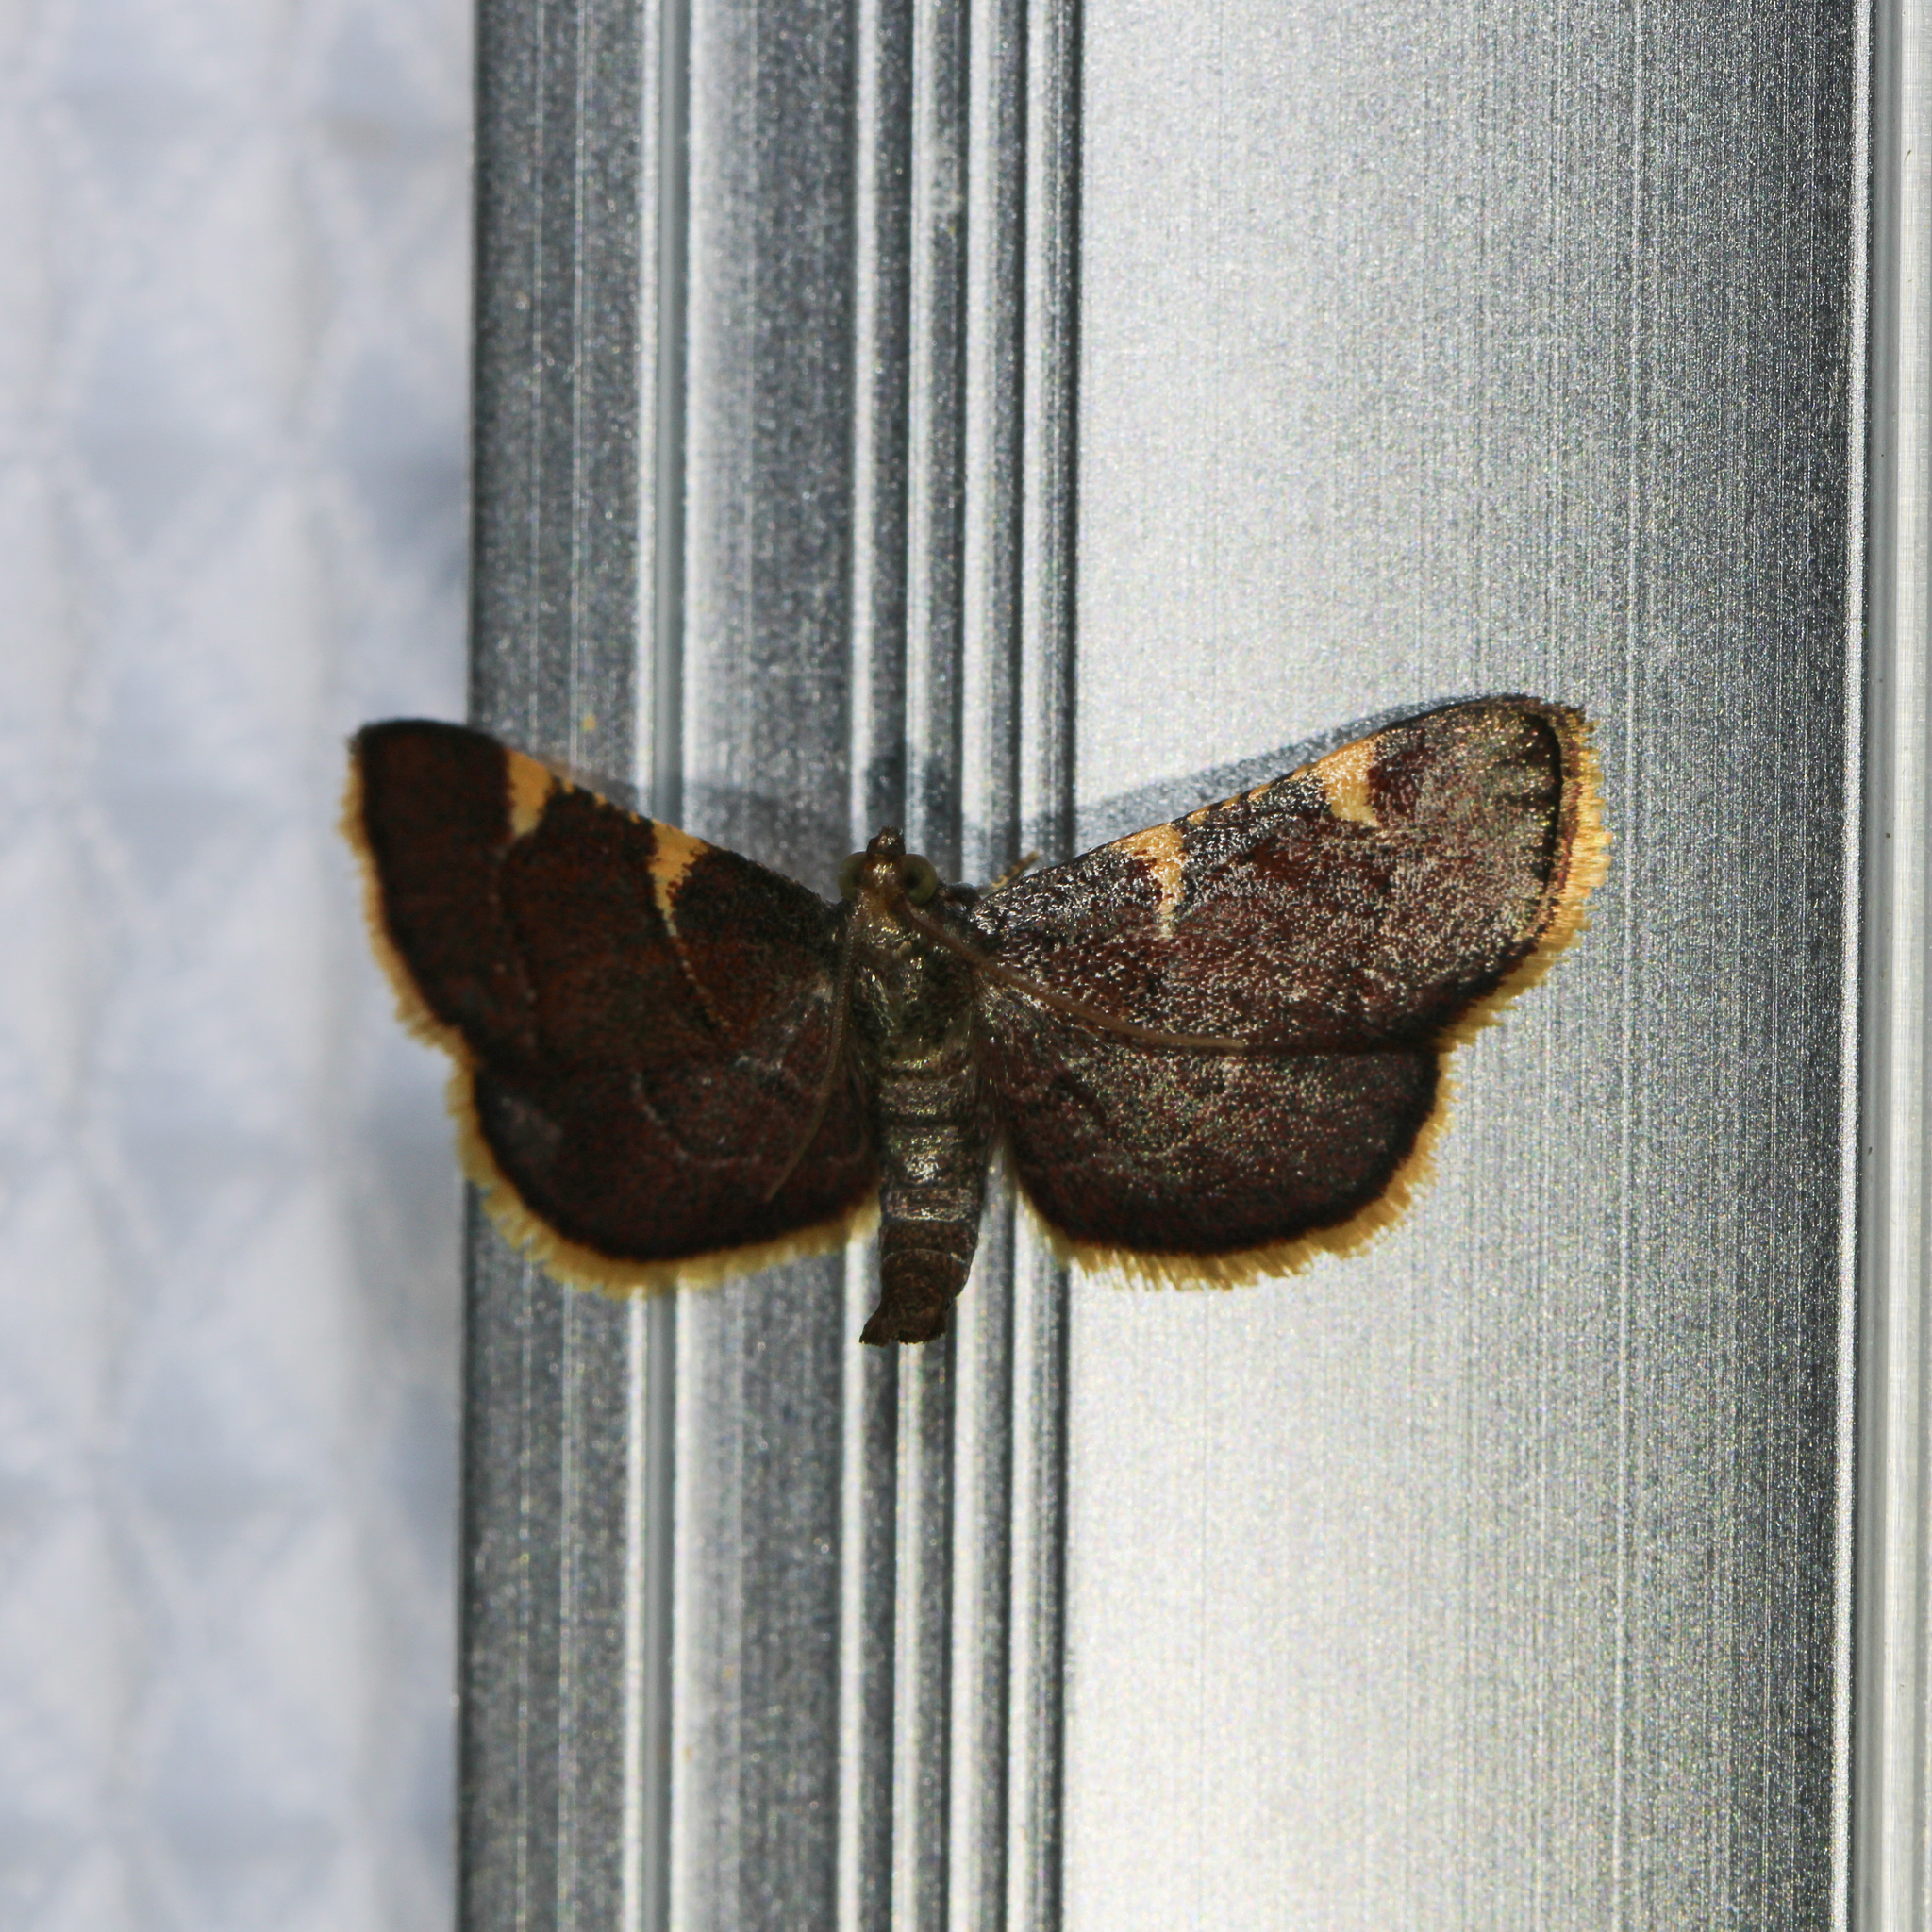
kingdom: Animalia
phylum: Arthropoda
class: Insecta
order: Lepidoptera
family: Pyralidae
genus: Hypsopygia
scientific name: Hypsopygia olinalis
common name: Yellow-fringed dolichomia moth
